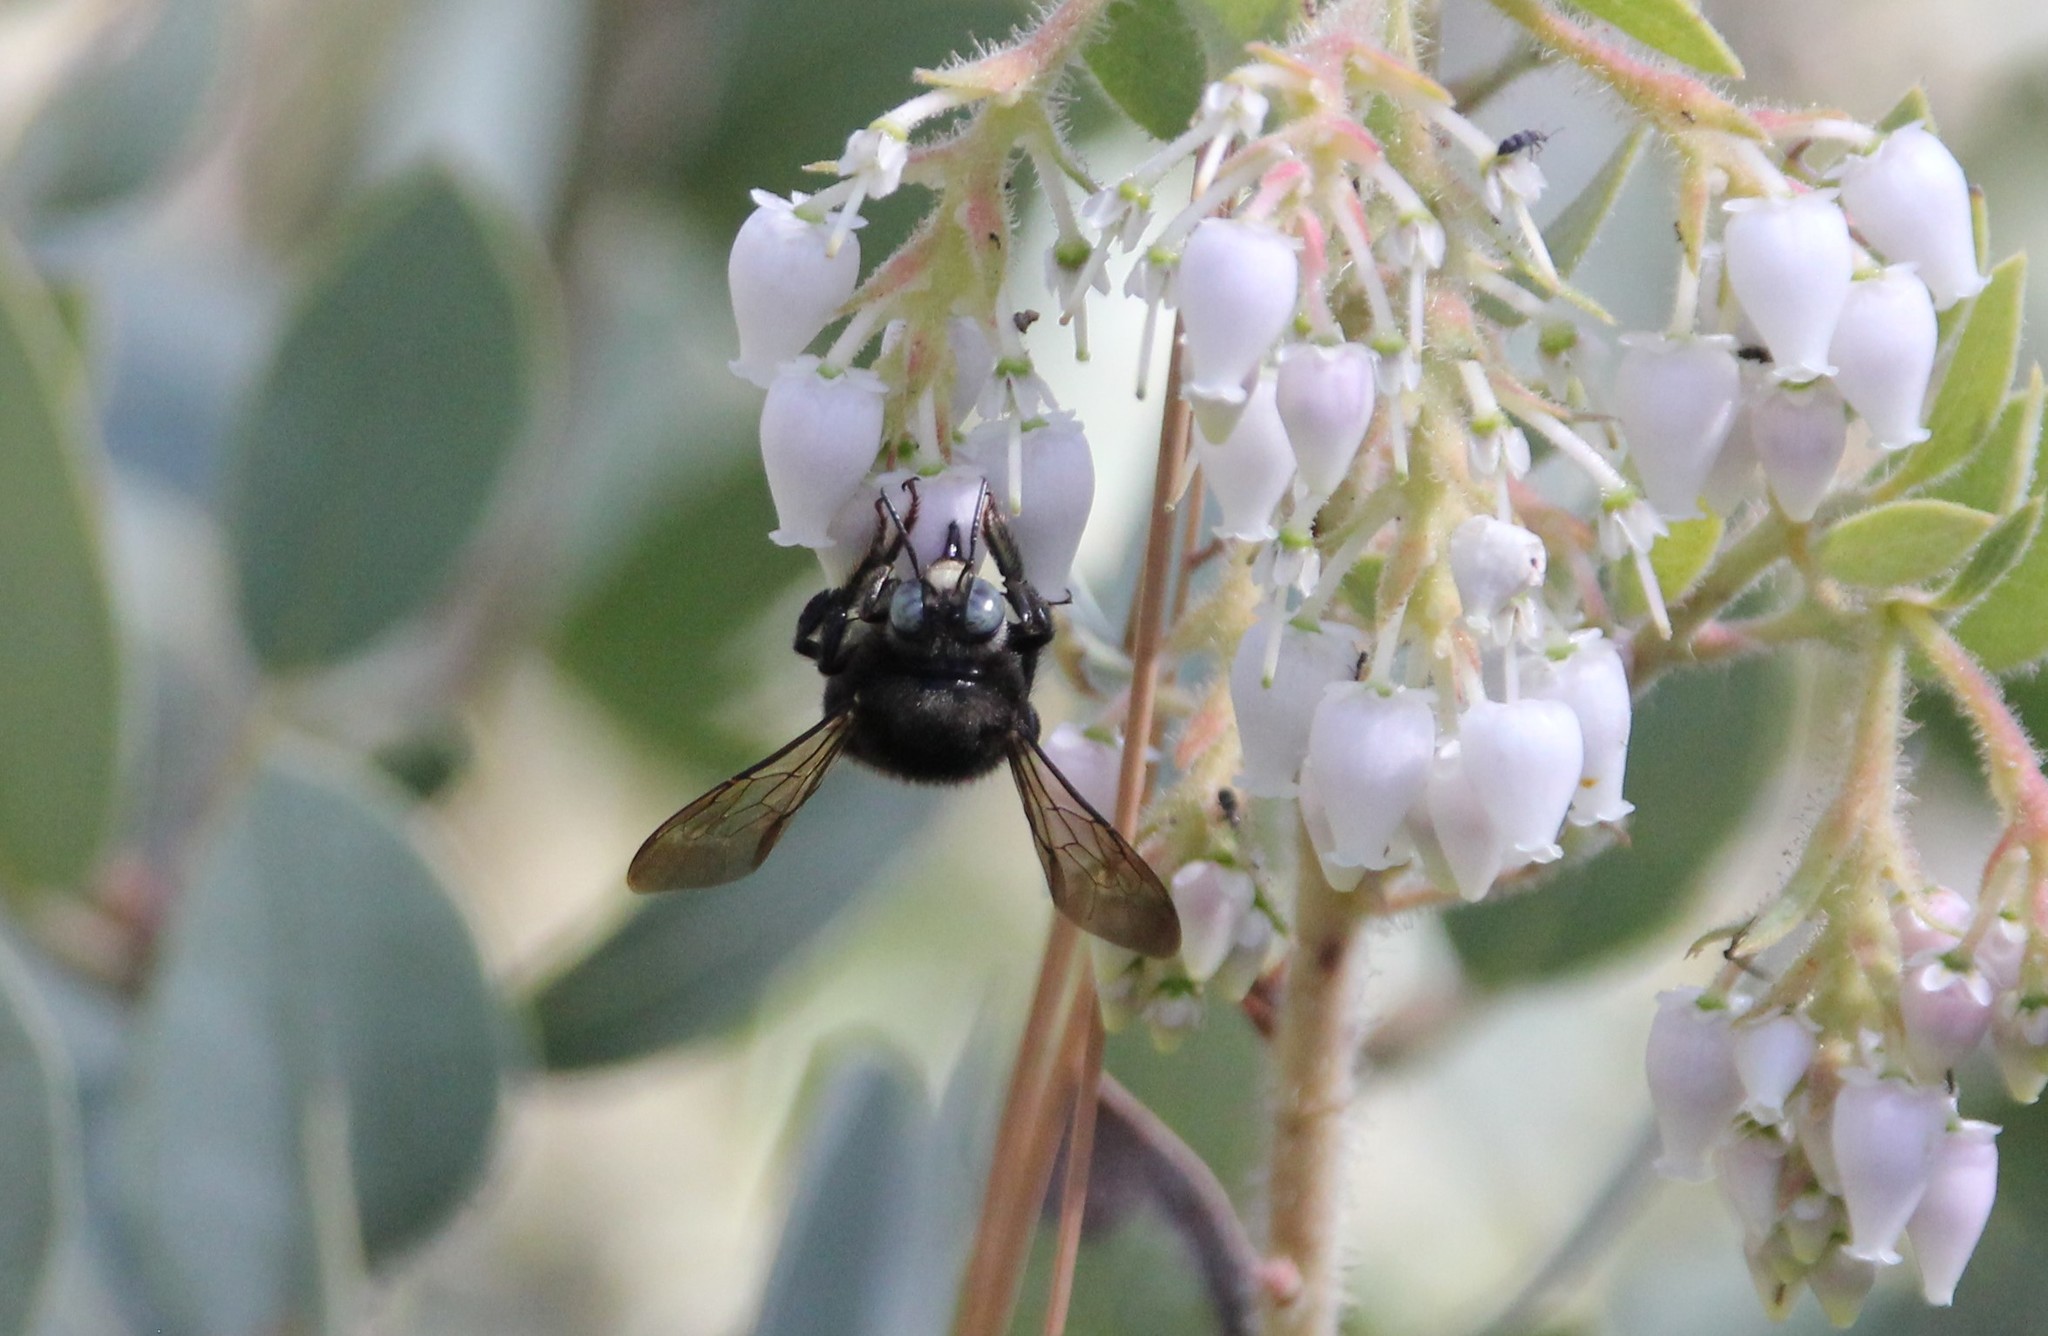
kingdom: Animalia
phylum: Arthropoda
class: Insecta
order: Hymenoptera
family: Apidae
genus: Xylocopa
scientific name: Xylocopa tabaniformis
